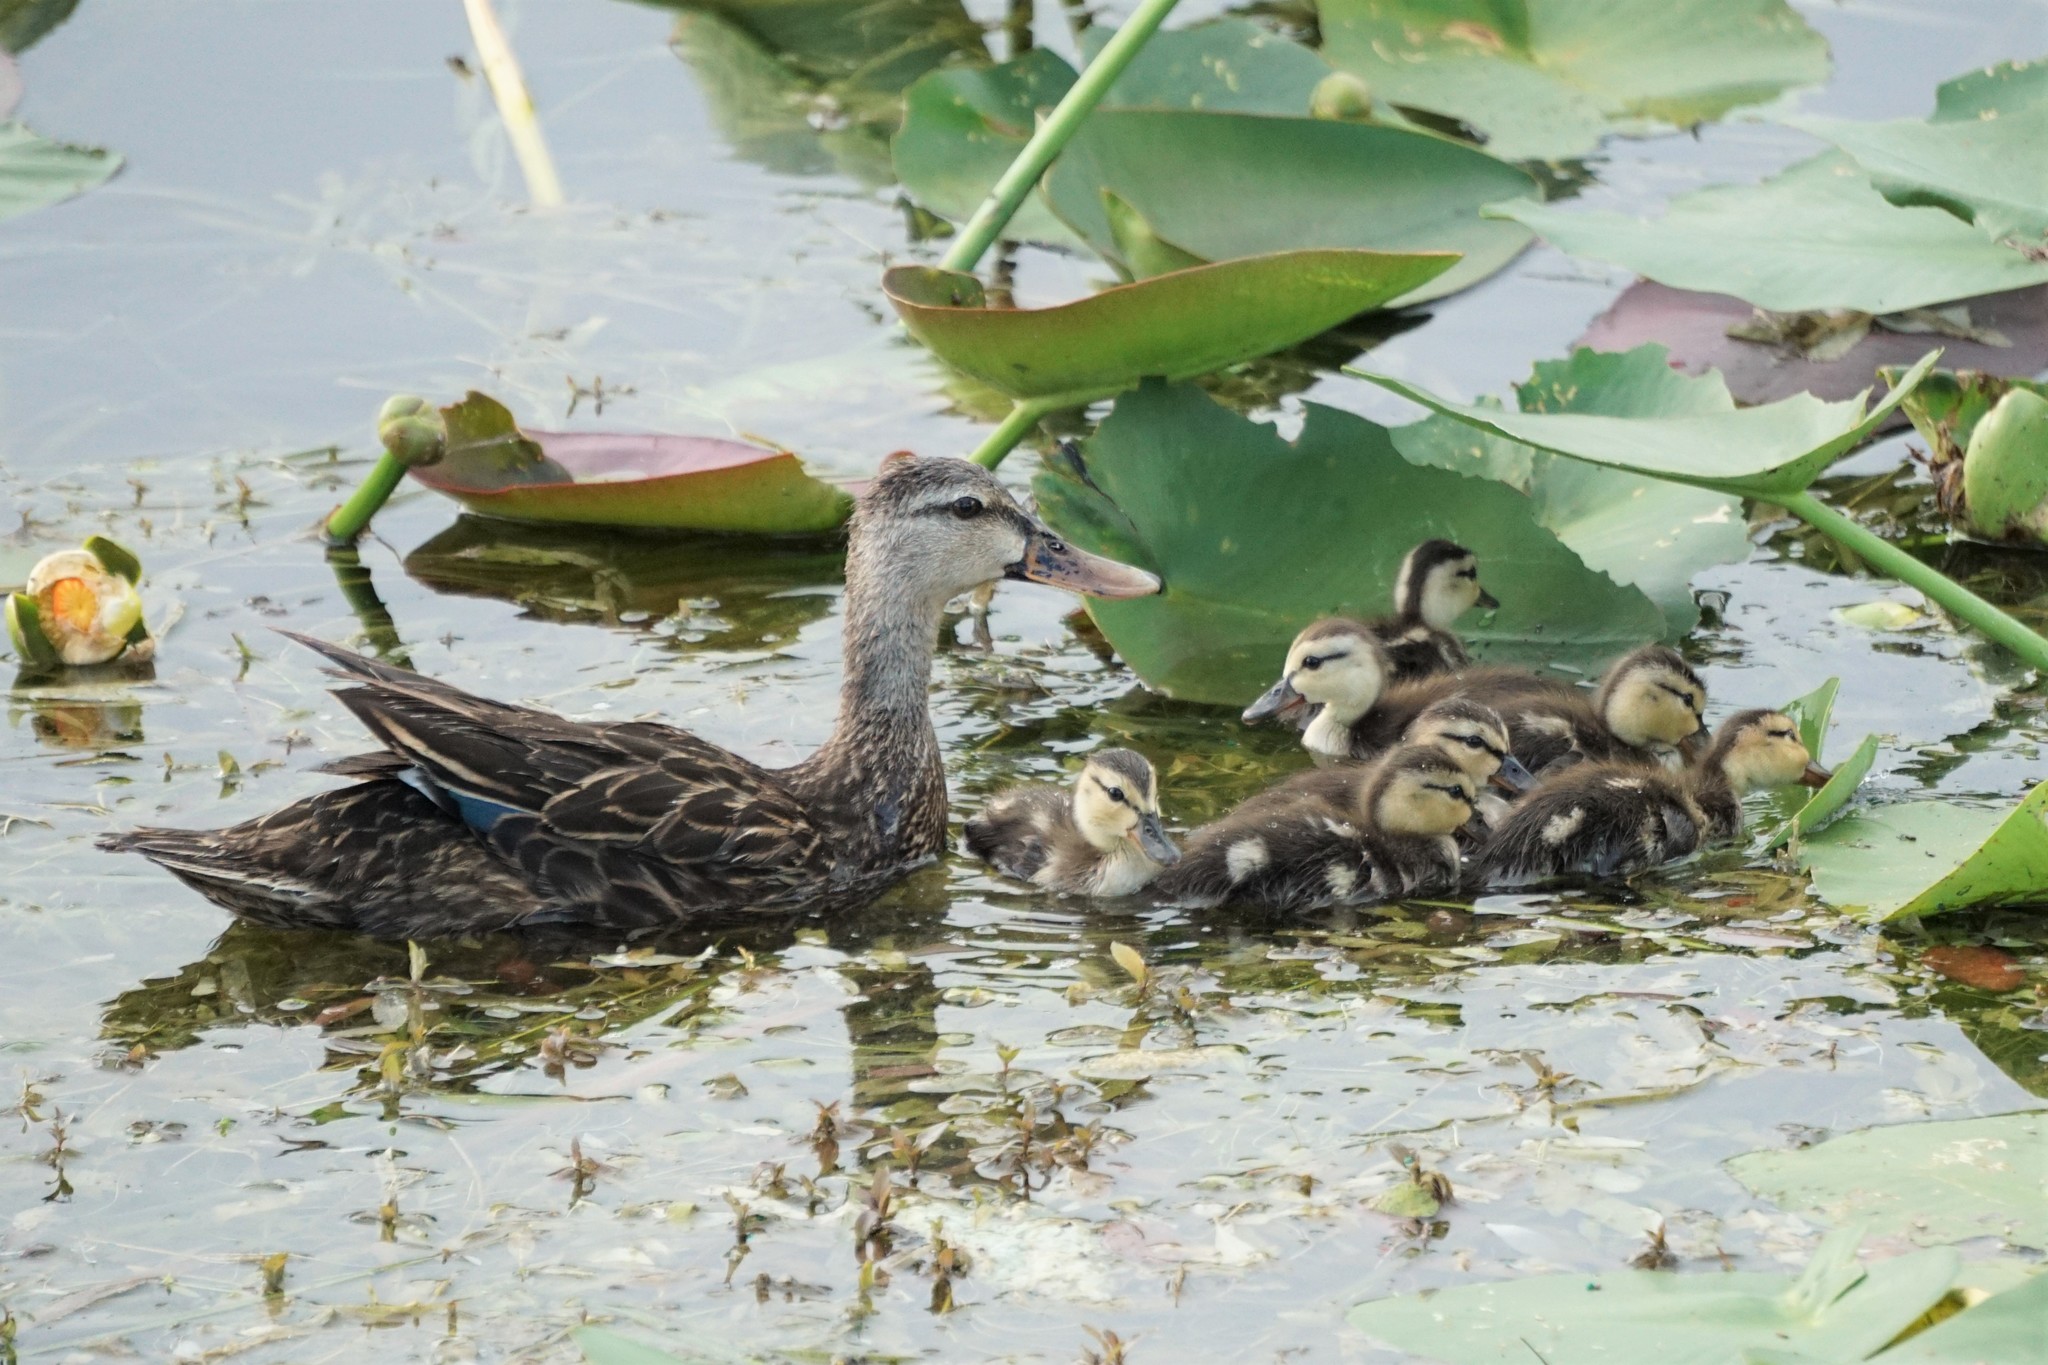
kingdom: Animalia
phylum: Chordata
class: Aves
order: Anseriformes
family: Anatidae
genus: Anas
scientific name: Anas
